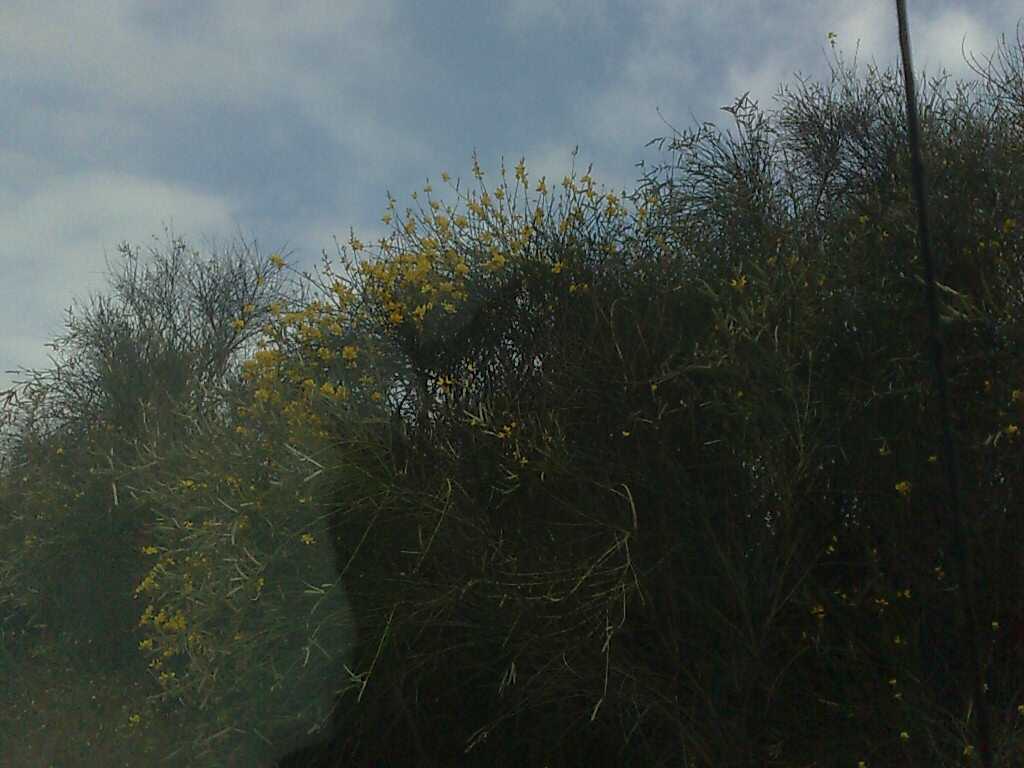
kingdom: Plantae
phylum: Tracheophyta
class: Magnoliopsida
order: Fabales
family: Fabaceae
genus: Spartium
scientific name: Spartium junceum
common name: Spanish broom
